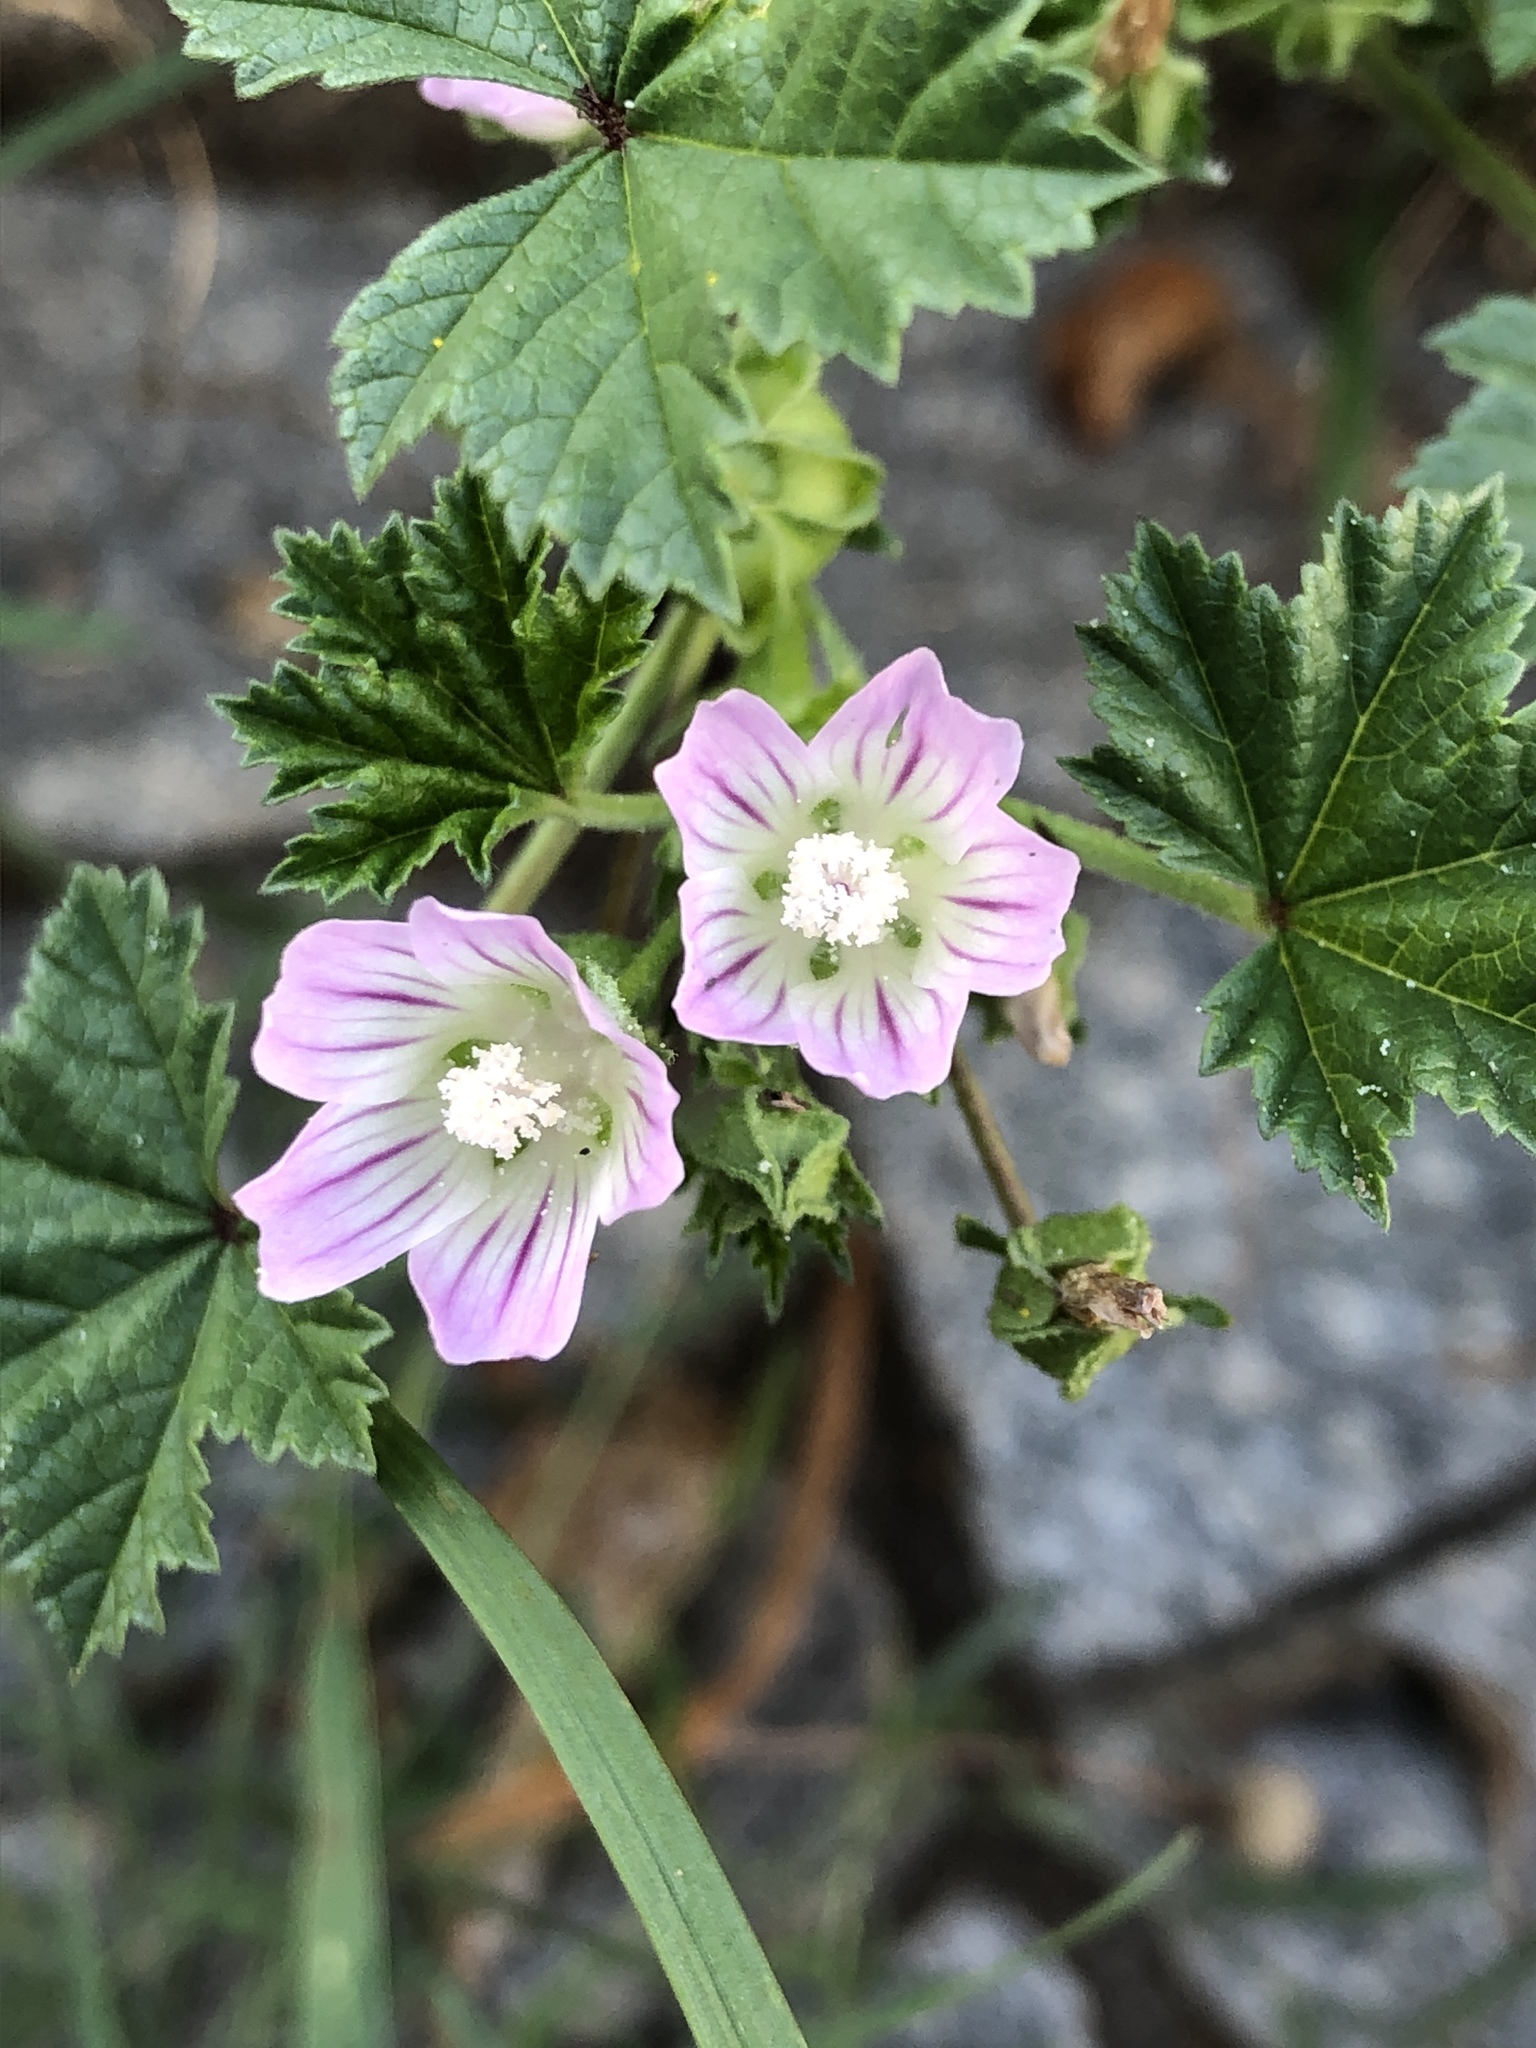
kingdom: Plantae
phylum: Tracheophyta
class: Magnoliopsida
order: Malvales
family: Malvaceae
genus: Malva
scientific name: Malva neglecta
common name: Common mallow
